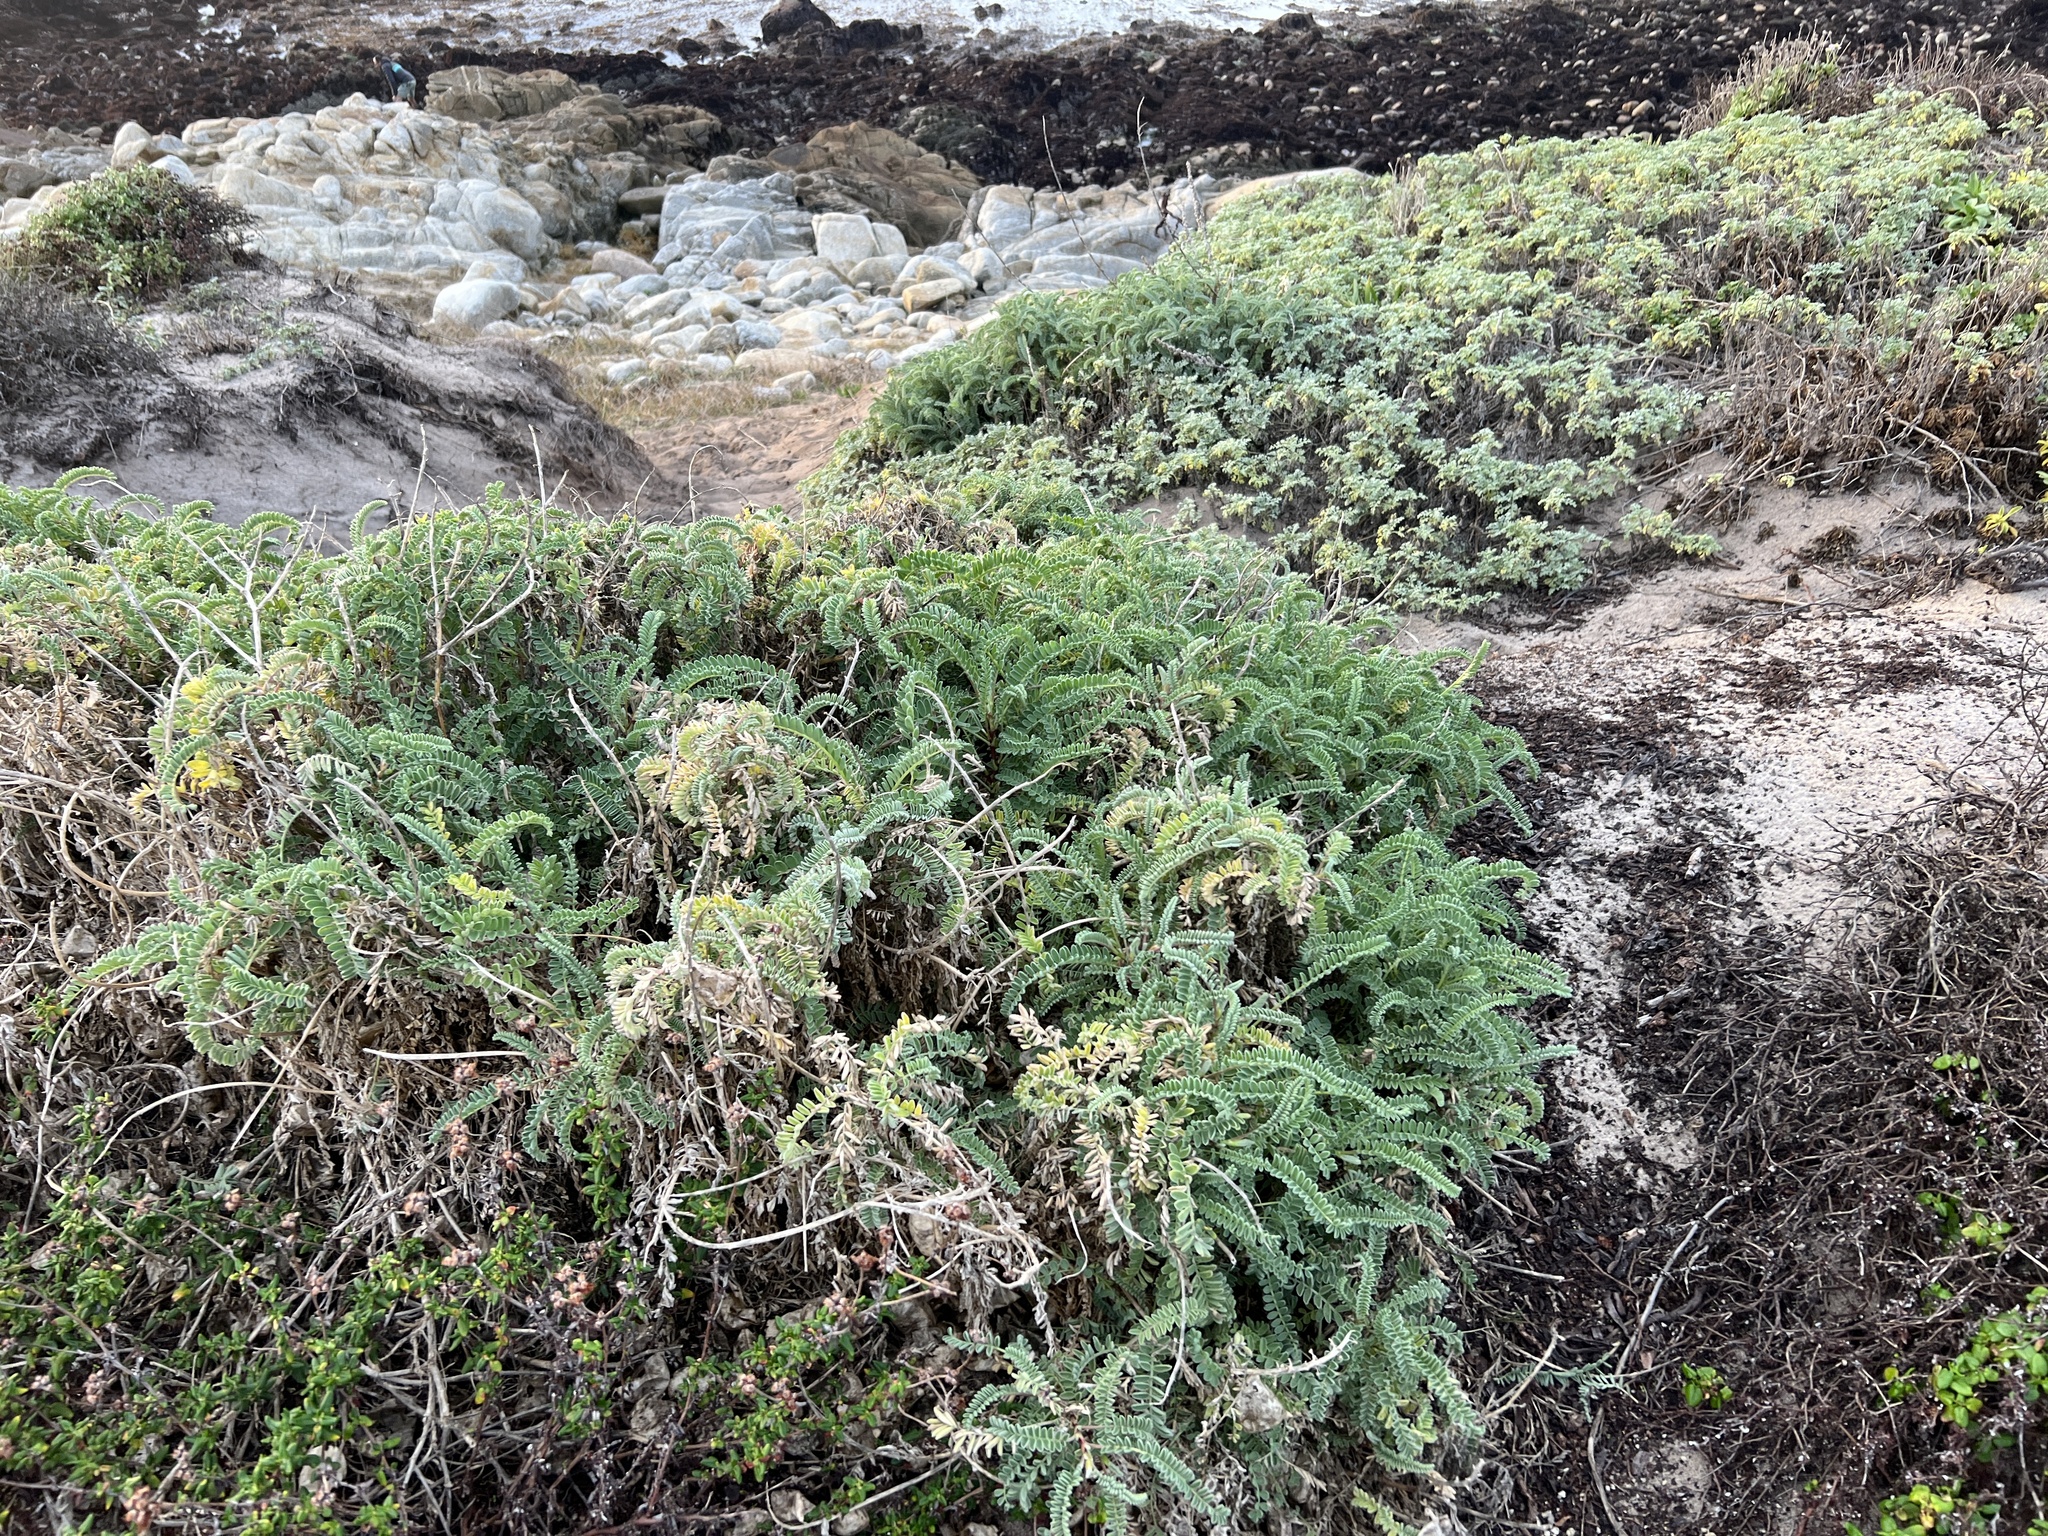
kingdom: Plantae
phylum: Tracheophyta
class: Magnoliopsida
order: Fabales
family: Fabaceae
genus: Astragalus
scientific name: Astragalus nuttallii
